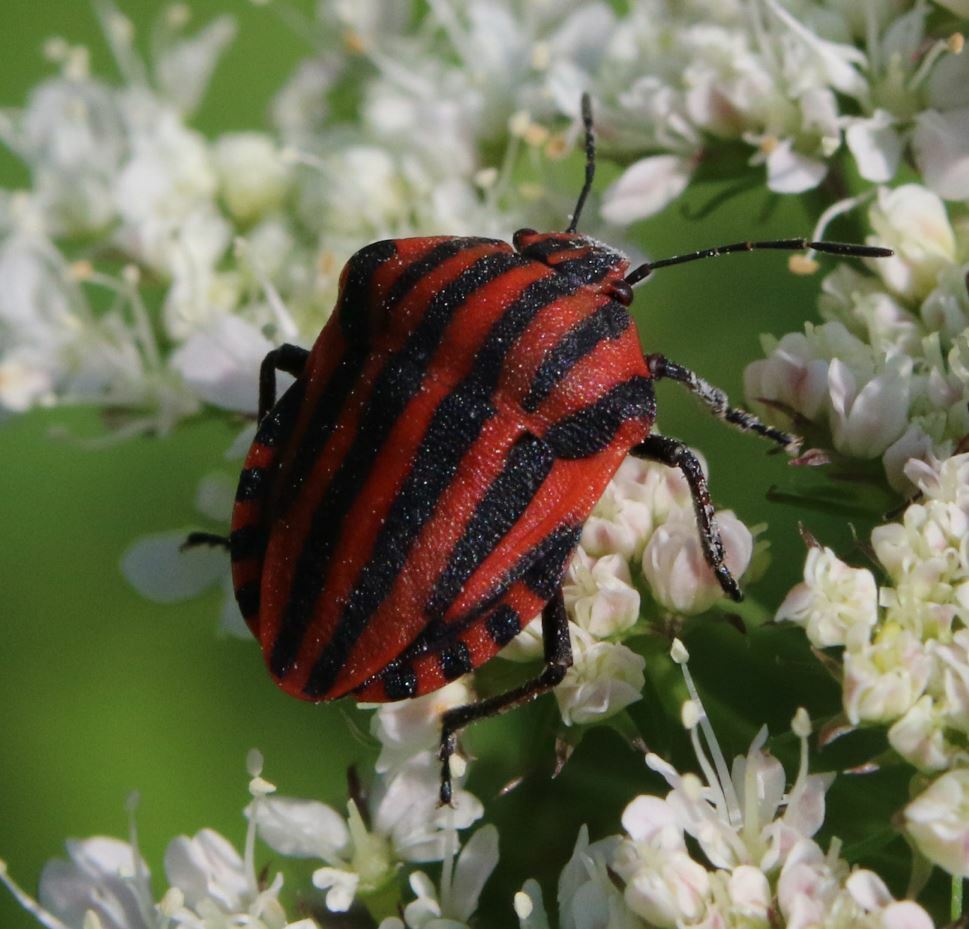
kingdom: Animalia
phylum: Arthropoda
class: Insecta
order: Hemiptera
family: Pentatomidae
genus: Graphosoma
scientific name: Graphosoma italicum
